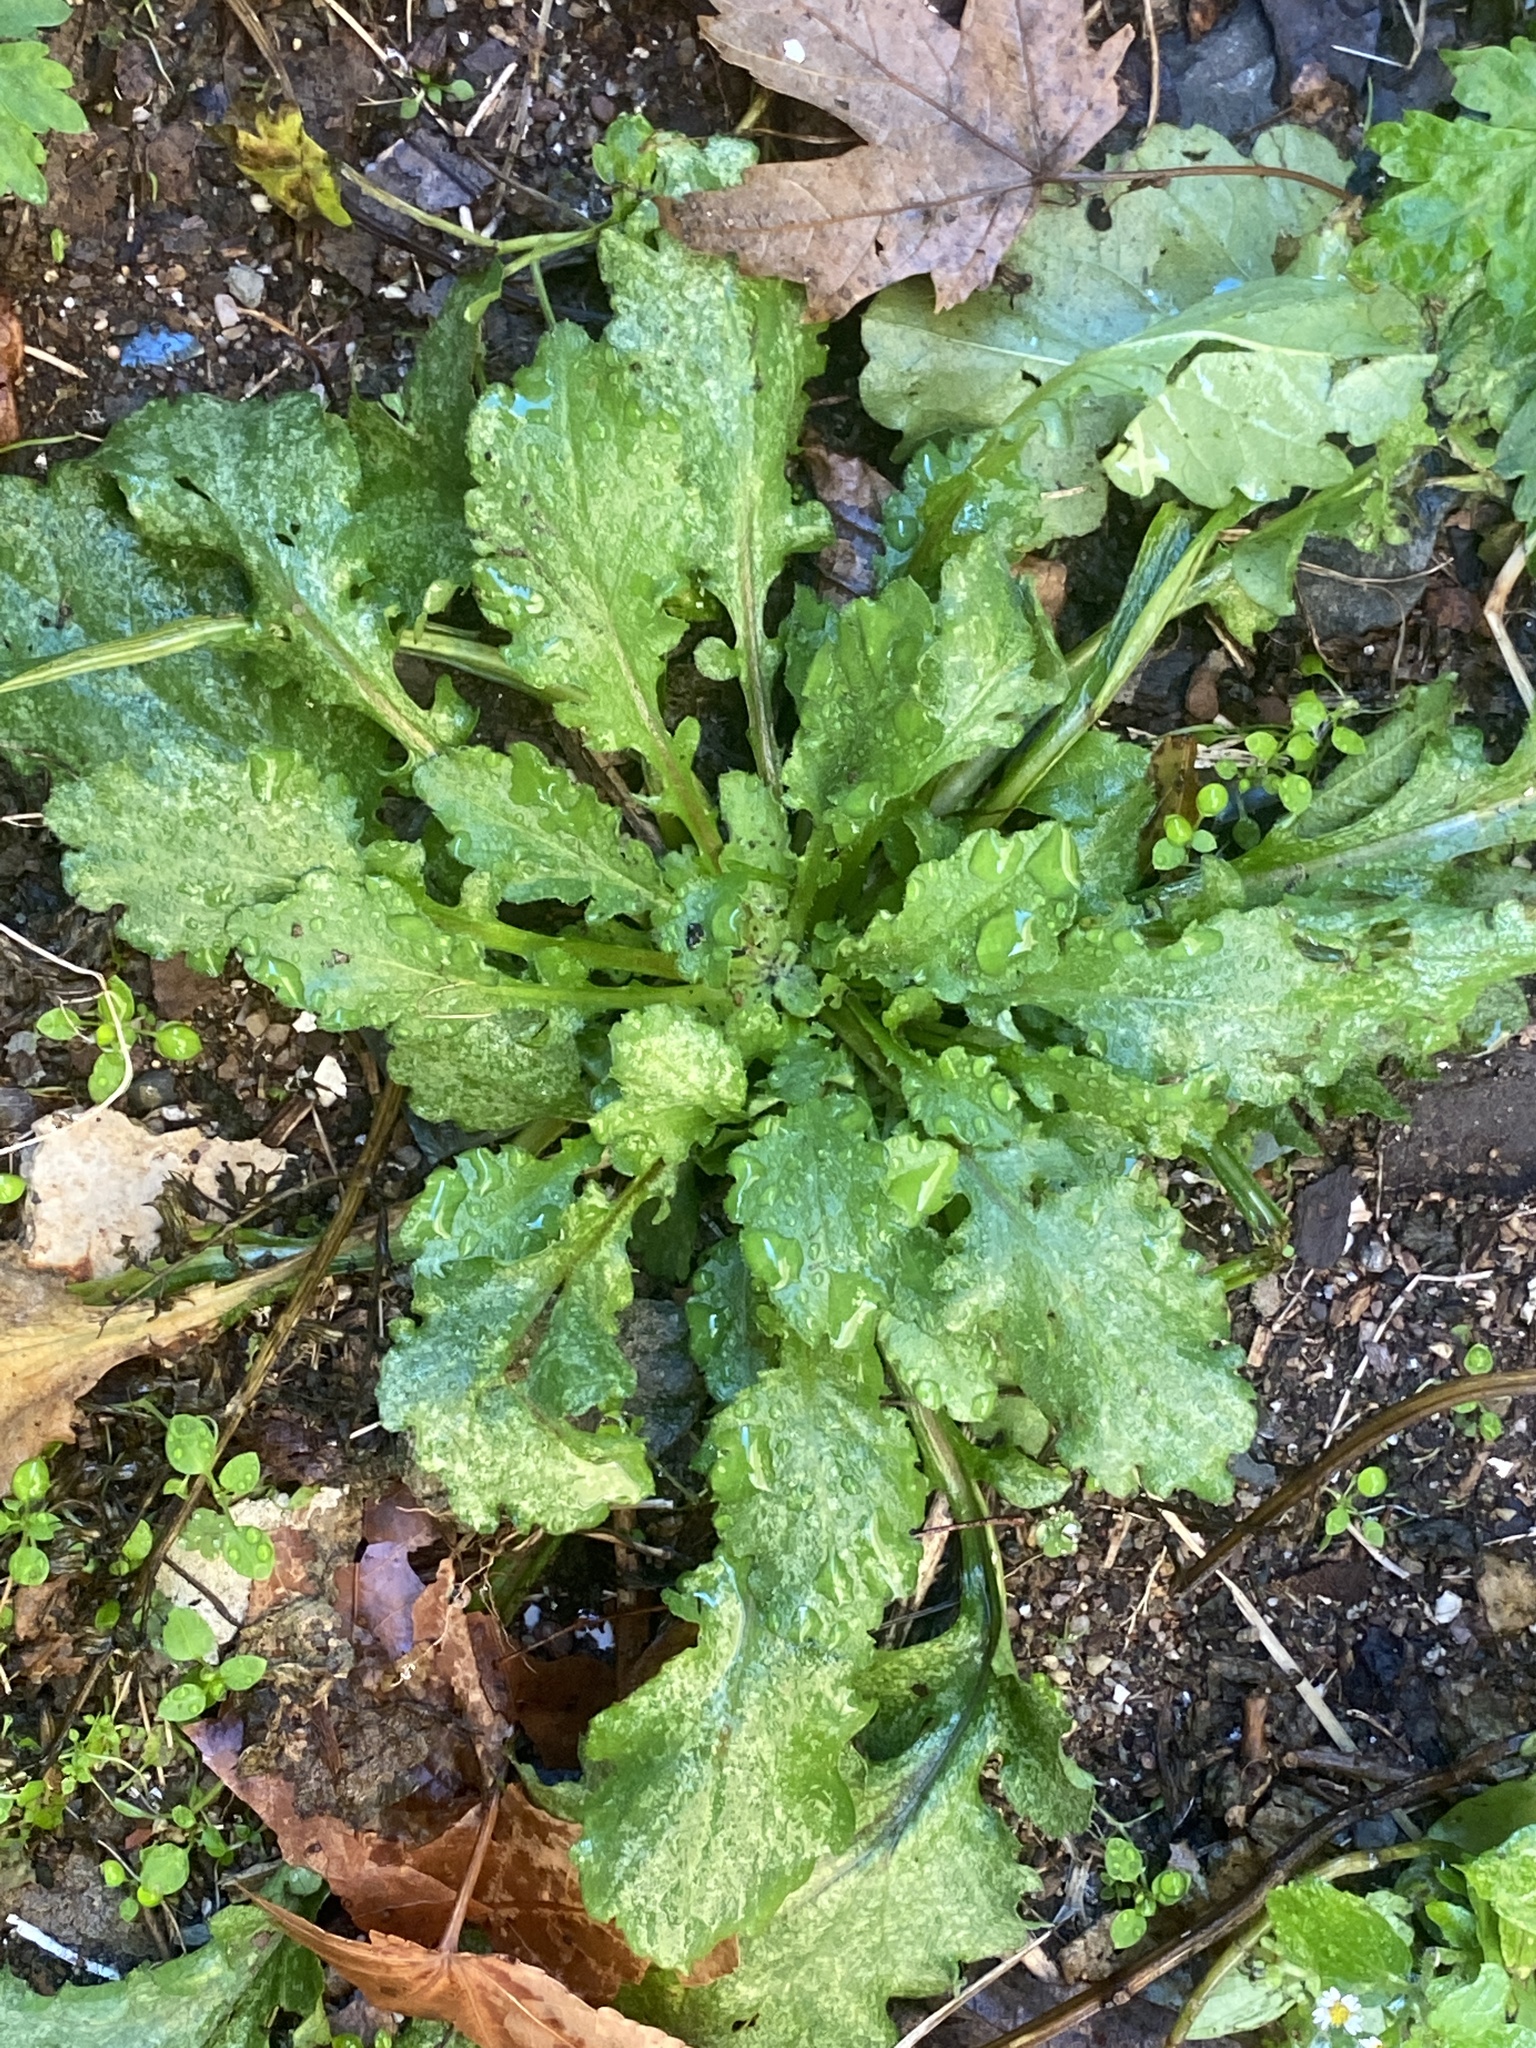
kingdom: Plantae
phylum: Tracheophyta
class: Magnoliopsida
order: Asterales
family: Asteraceae
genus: Erigeron
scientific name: Erigeron canadensis
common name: Canadian fleabane
